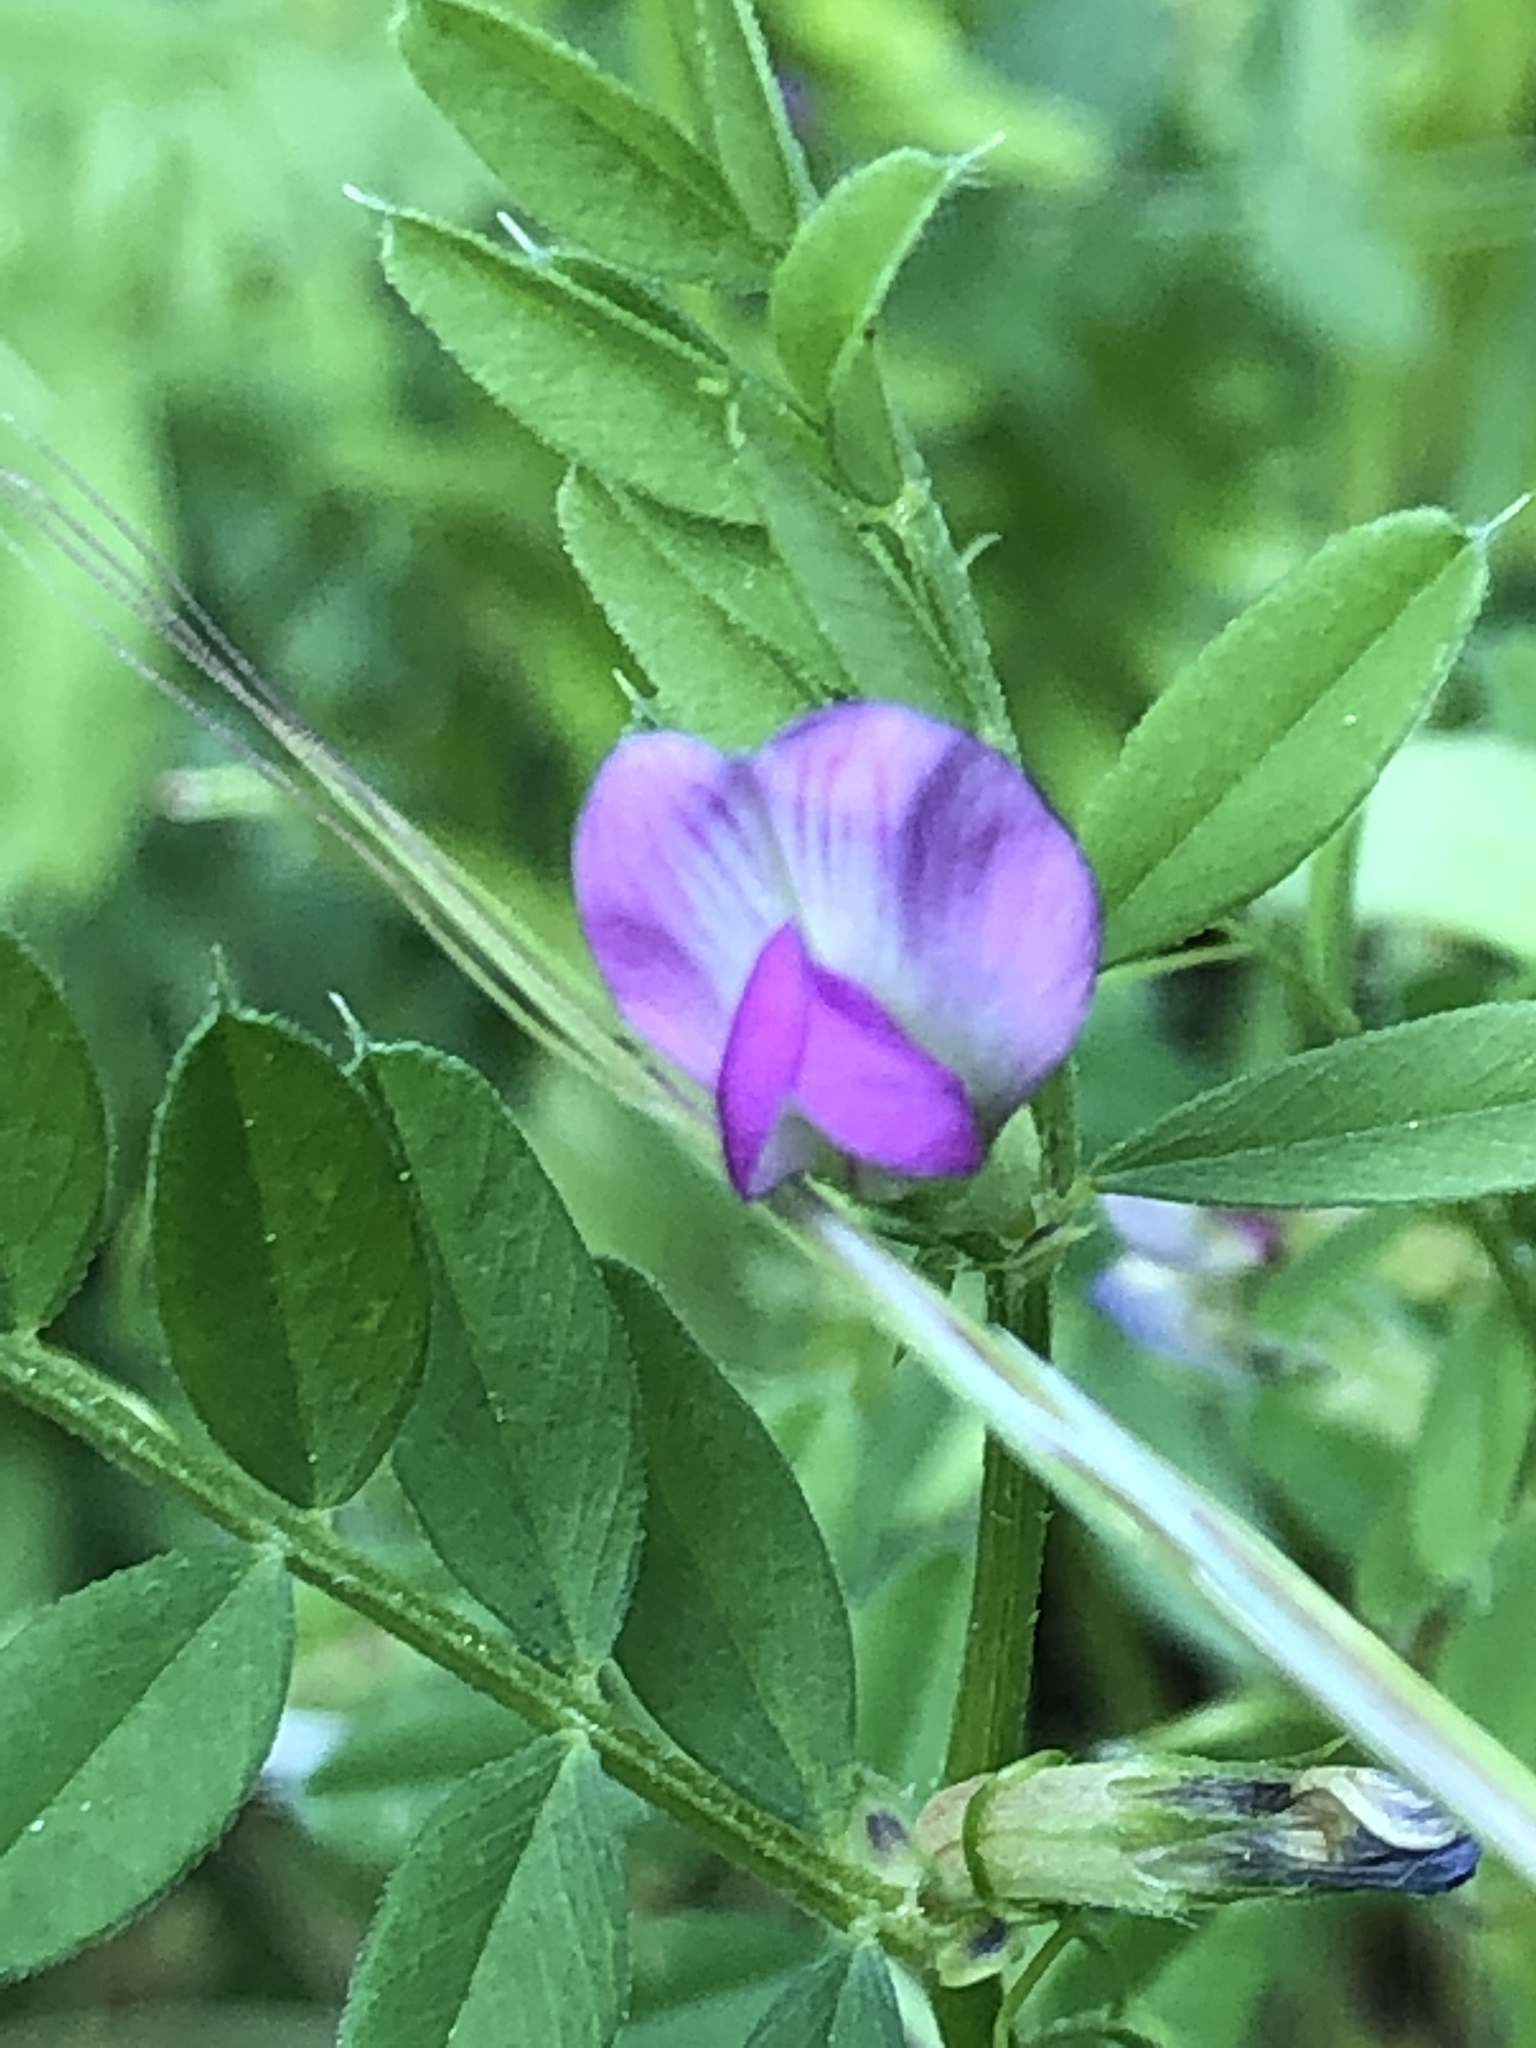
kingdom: Plantae
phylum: Tracheophyta
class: Magnoliopsida
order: Fabales
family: Fabaceae
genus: Vicia
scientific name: Vicia sativa
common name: Garden vetch
